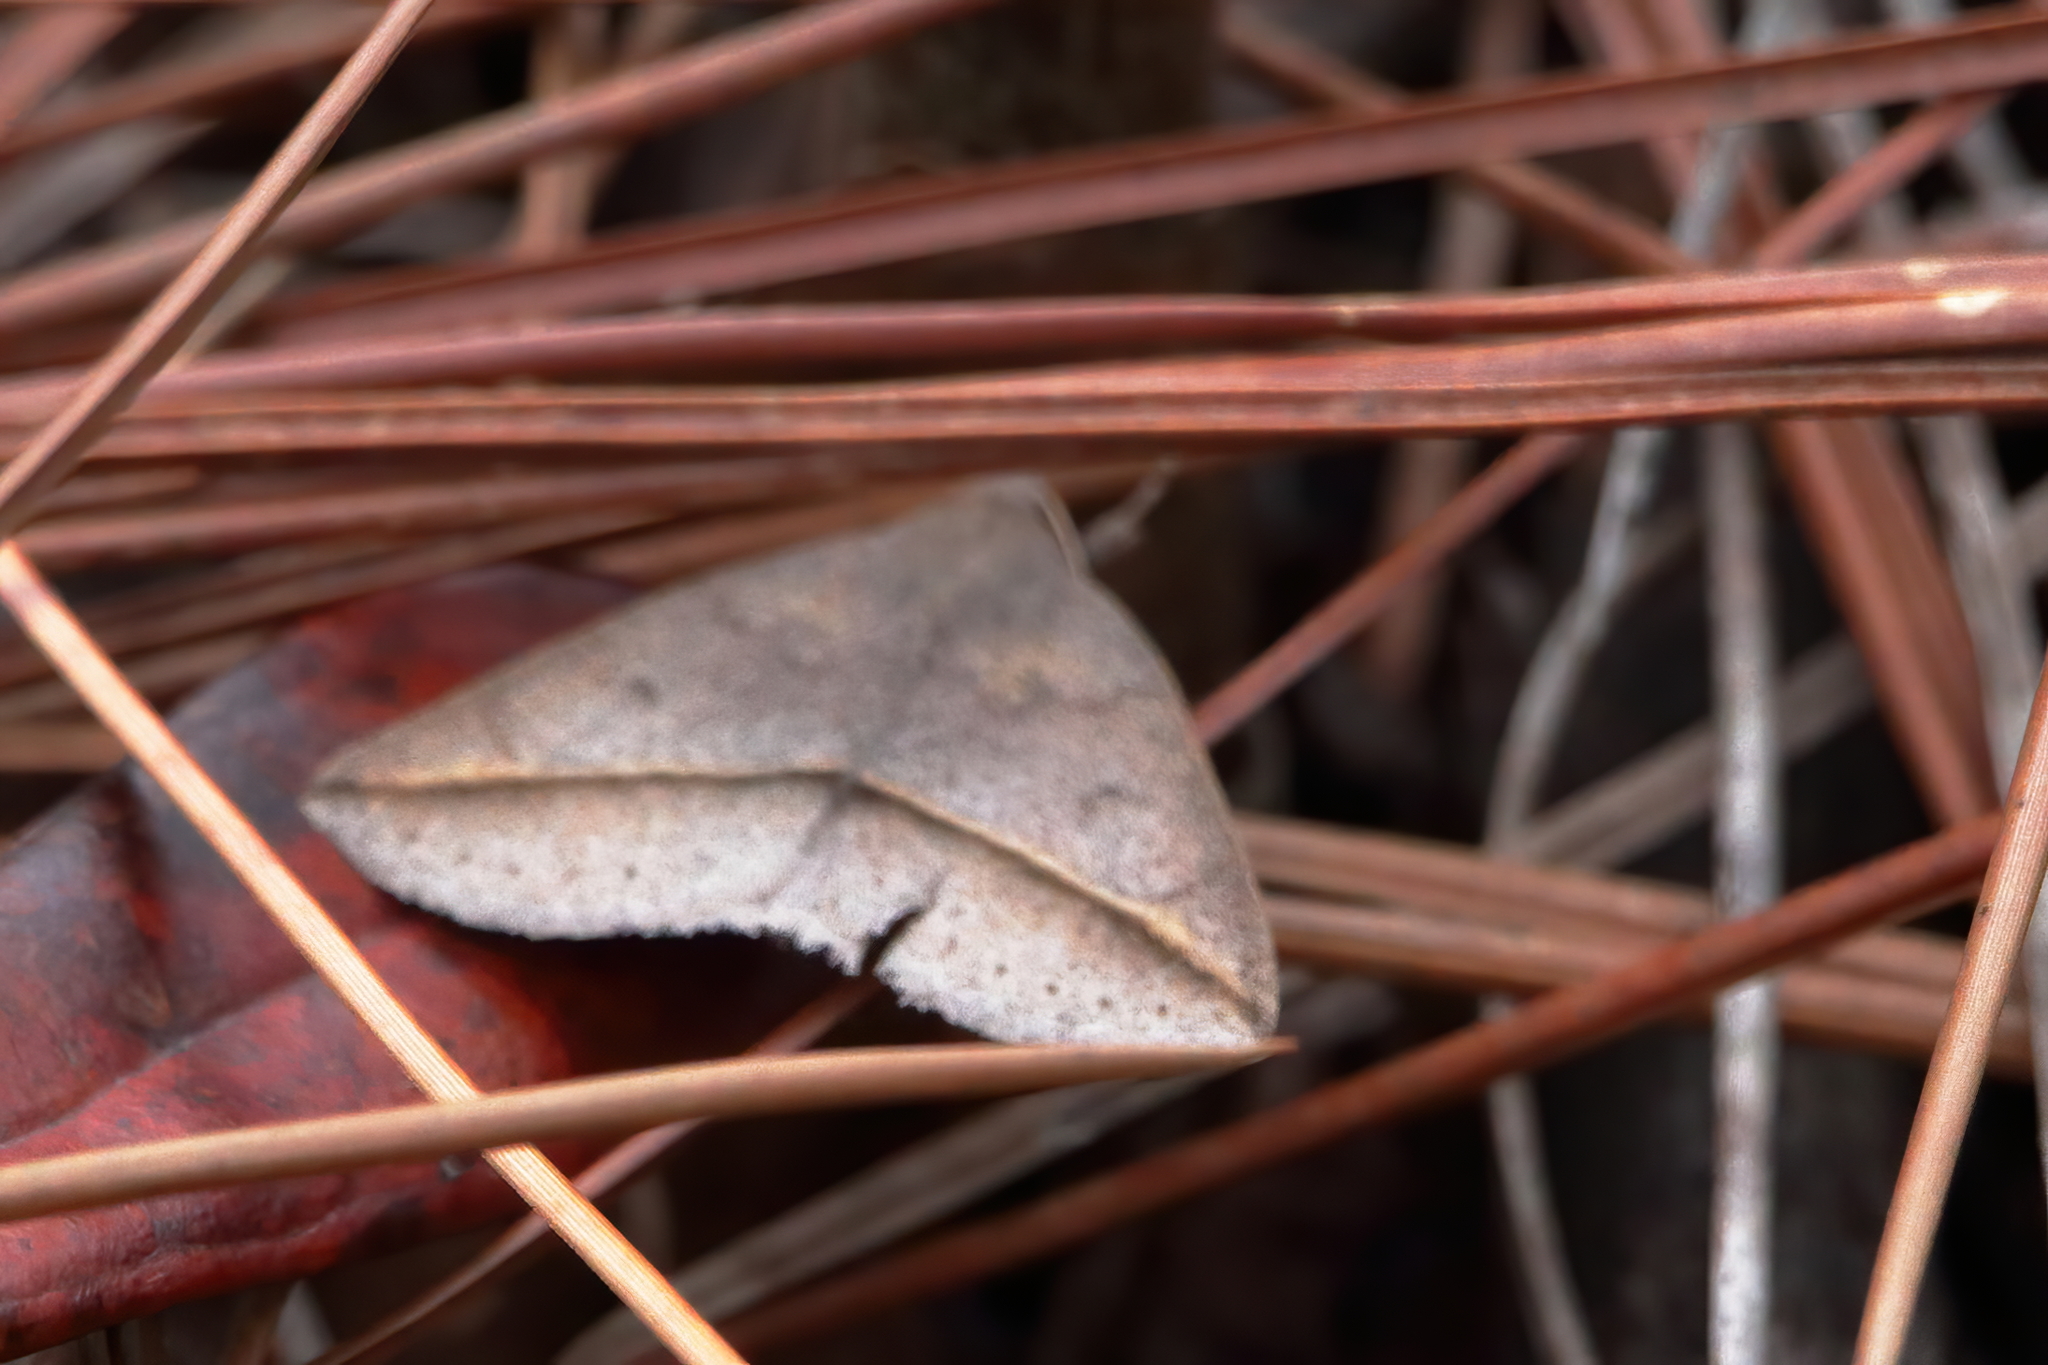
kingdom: Animalia
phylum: Arthropoda
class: Insecta
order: Lepidoptera
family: Erebidae
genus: Argyrostrotis
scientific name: Argyrostrotis flavistriaria
